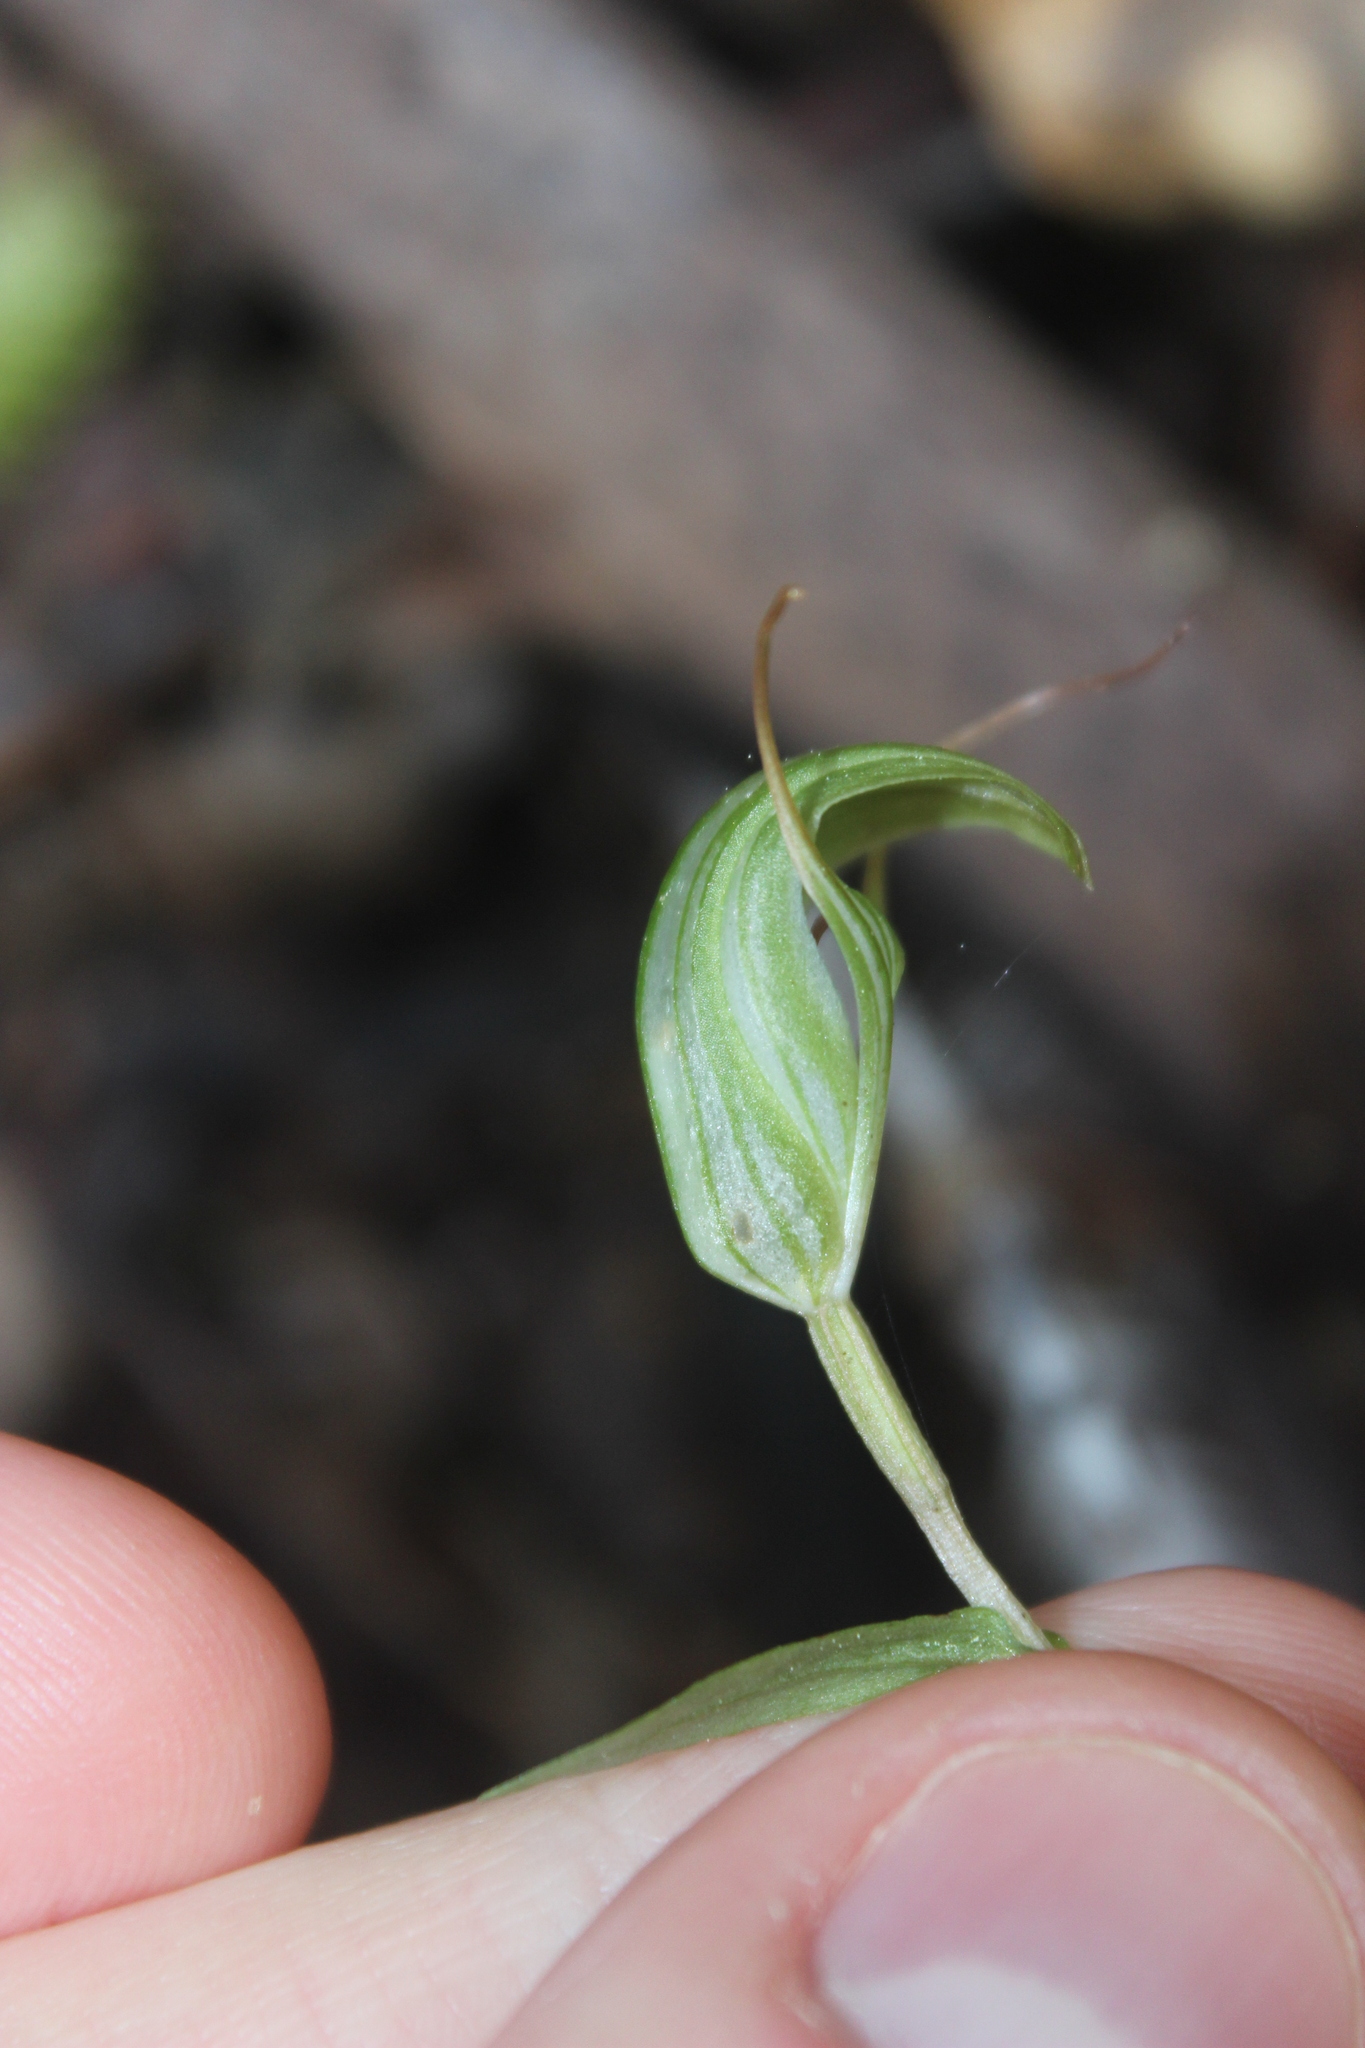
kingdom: Plantae
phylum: Tracheophyta
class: Liliopsida
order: Asparagales
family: Orchidaceae
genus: Pterostylis
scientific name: Pterostylis alobula
